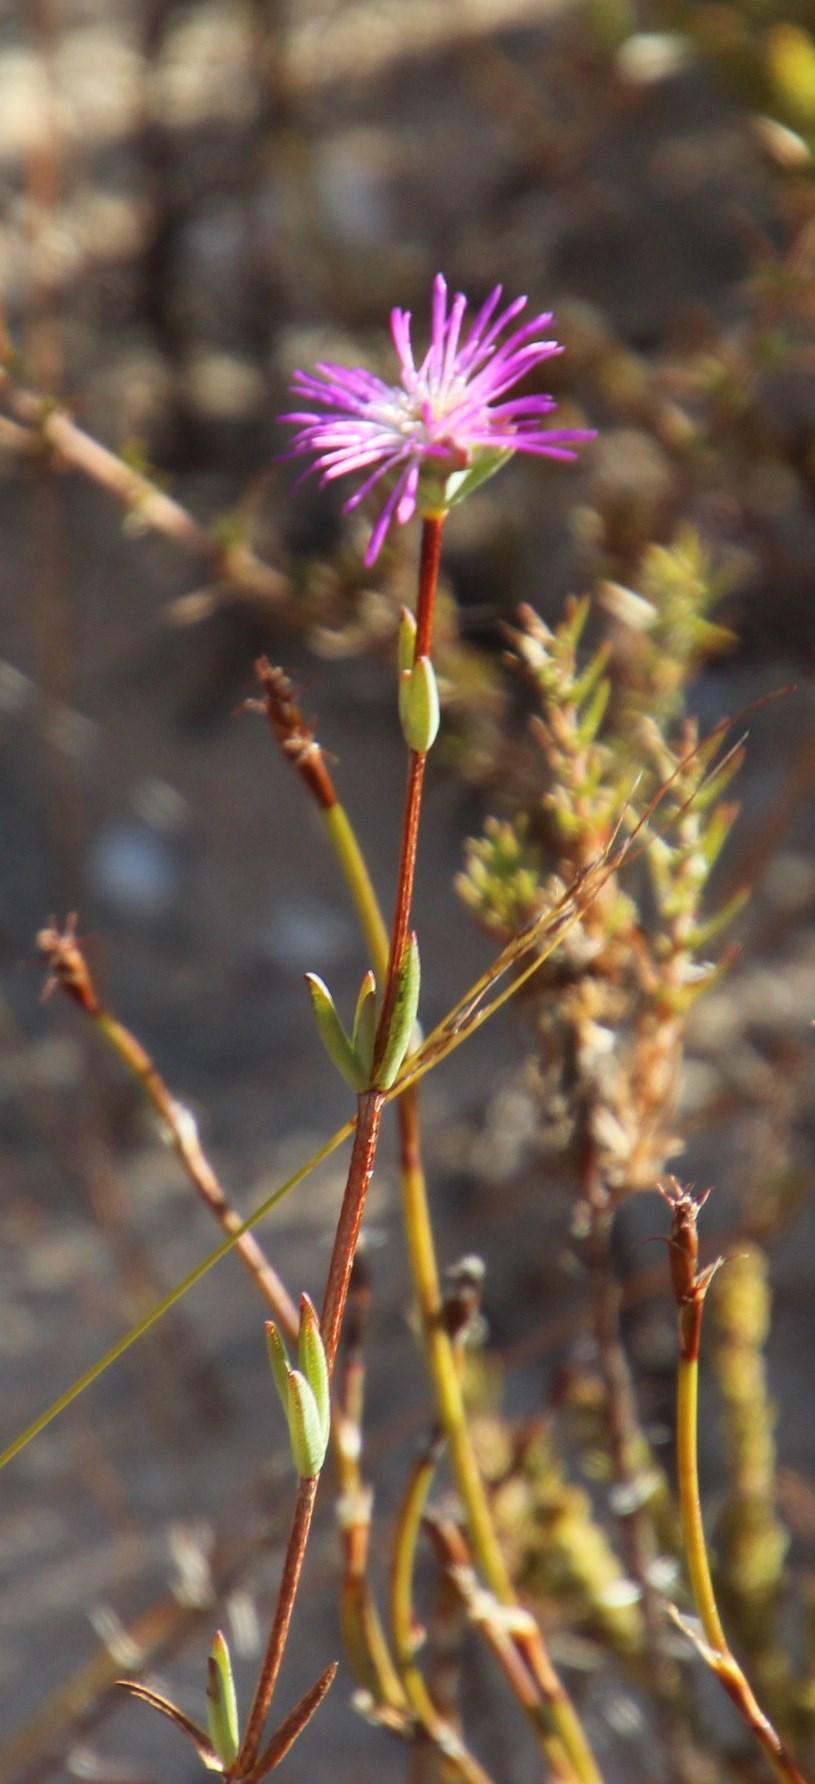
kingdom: Plantae
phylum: Tracheophyta
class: Magnoliopsida
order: Caryophyllales
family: Aizoaceae
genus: Erepsia
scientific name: Erepsia gracilis
